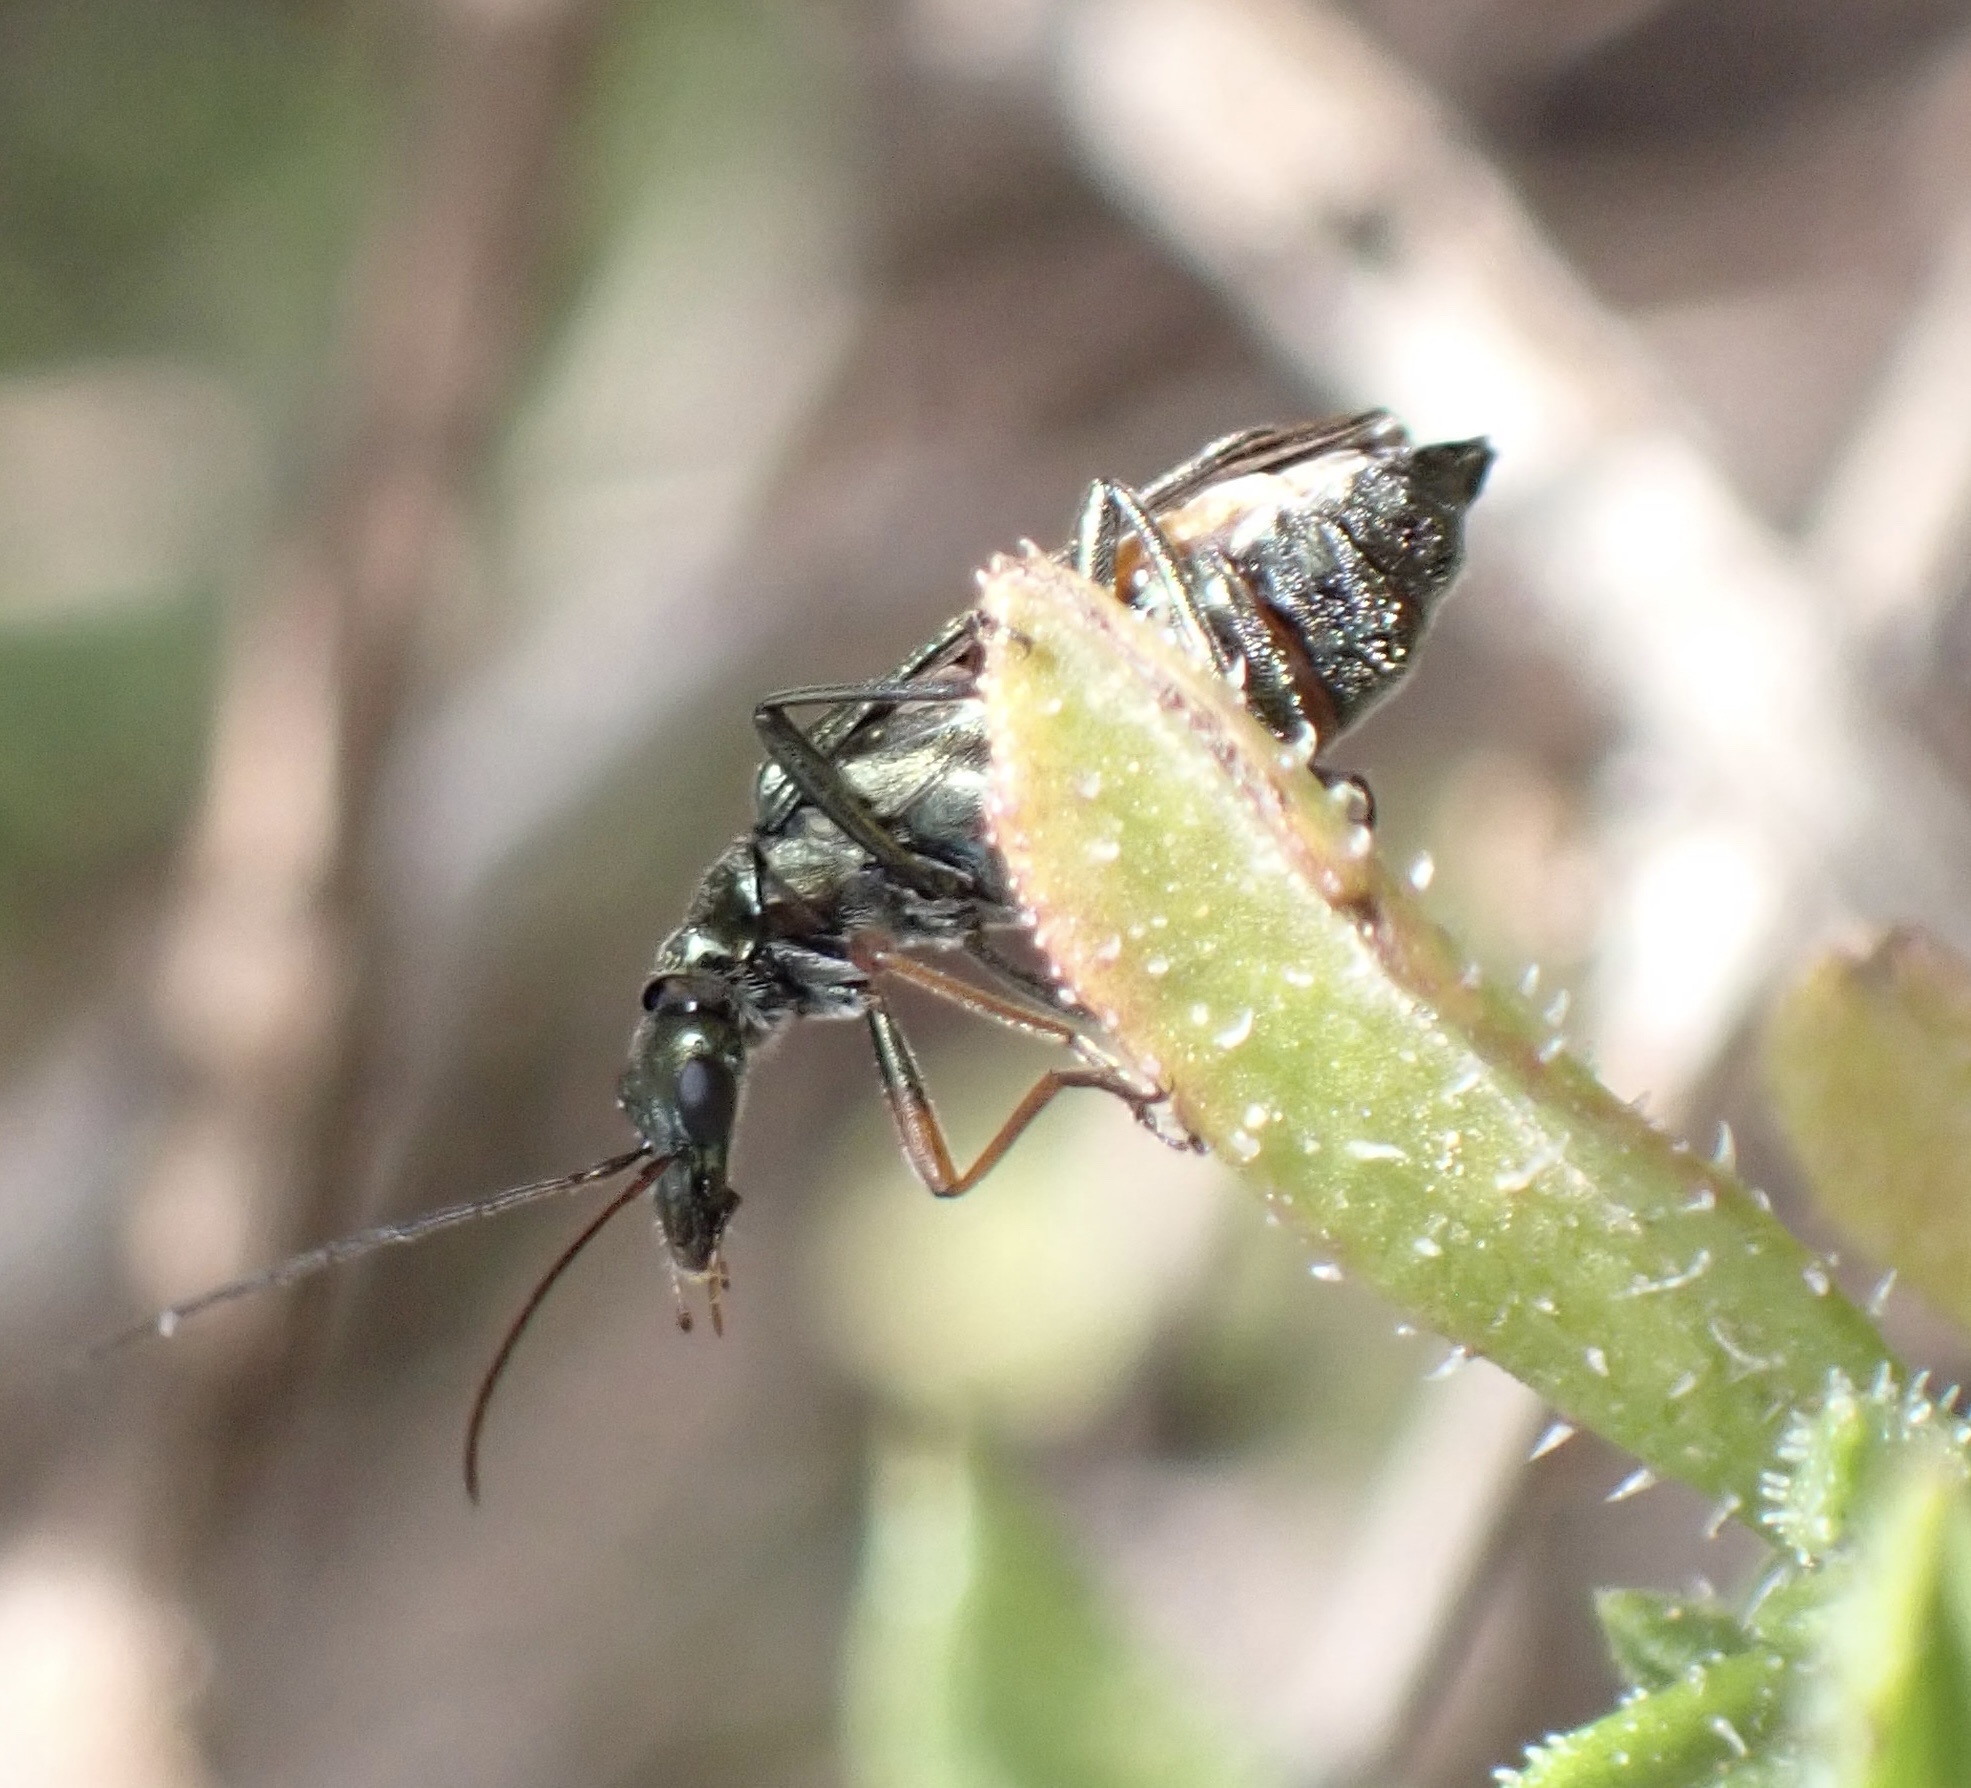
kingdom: Animalia
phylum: Arthropoda
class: Insecta
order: Coleoptera
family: Oedemeridae
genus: Oedemera
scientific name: Oedemera cretica
